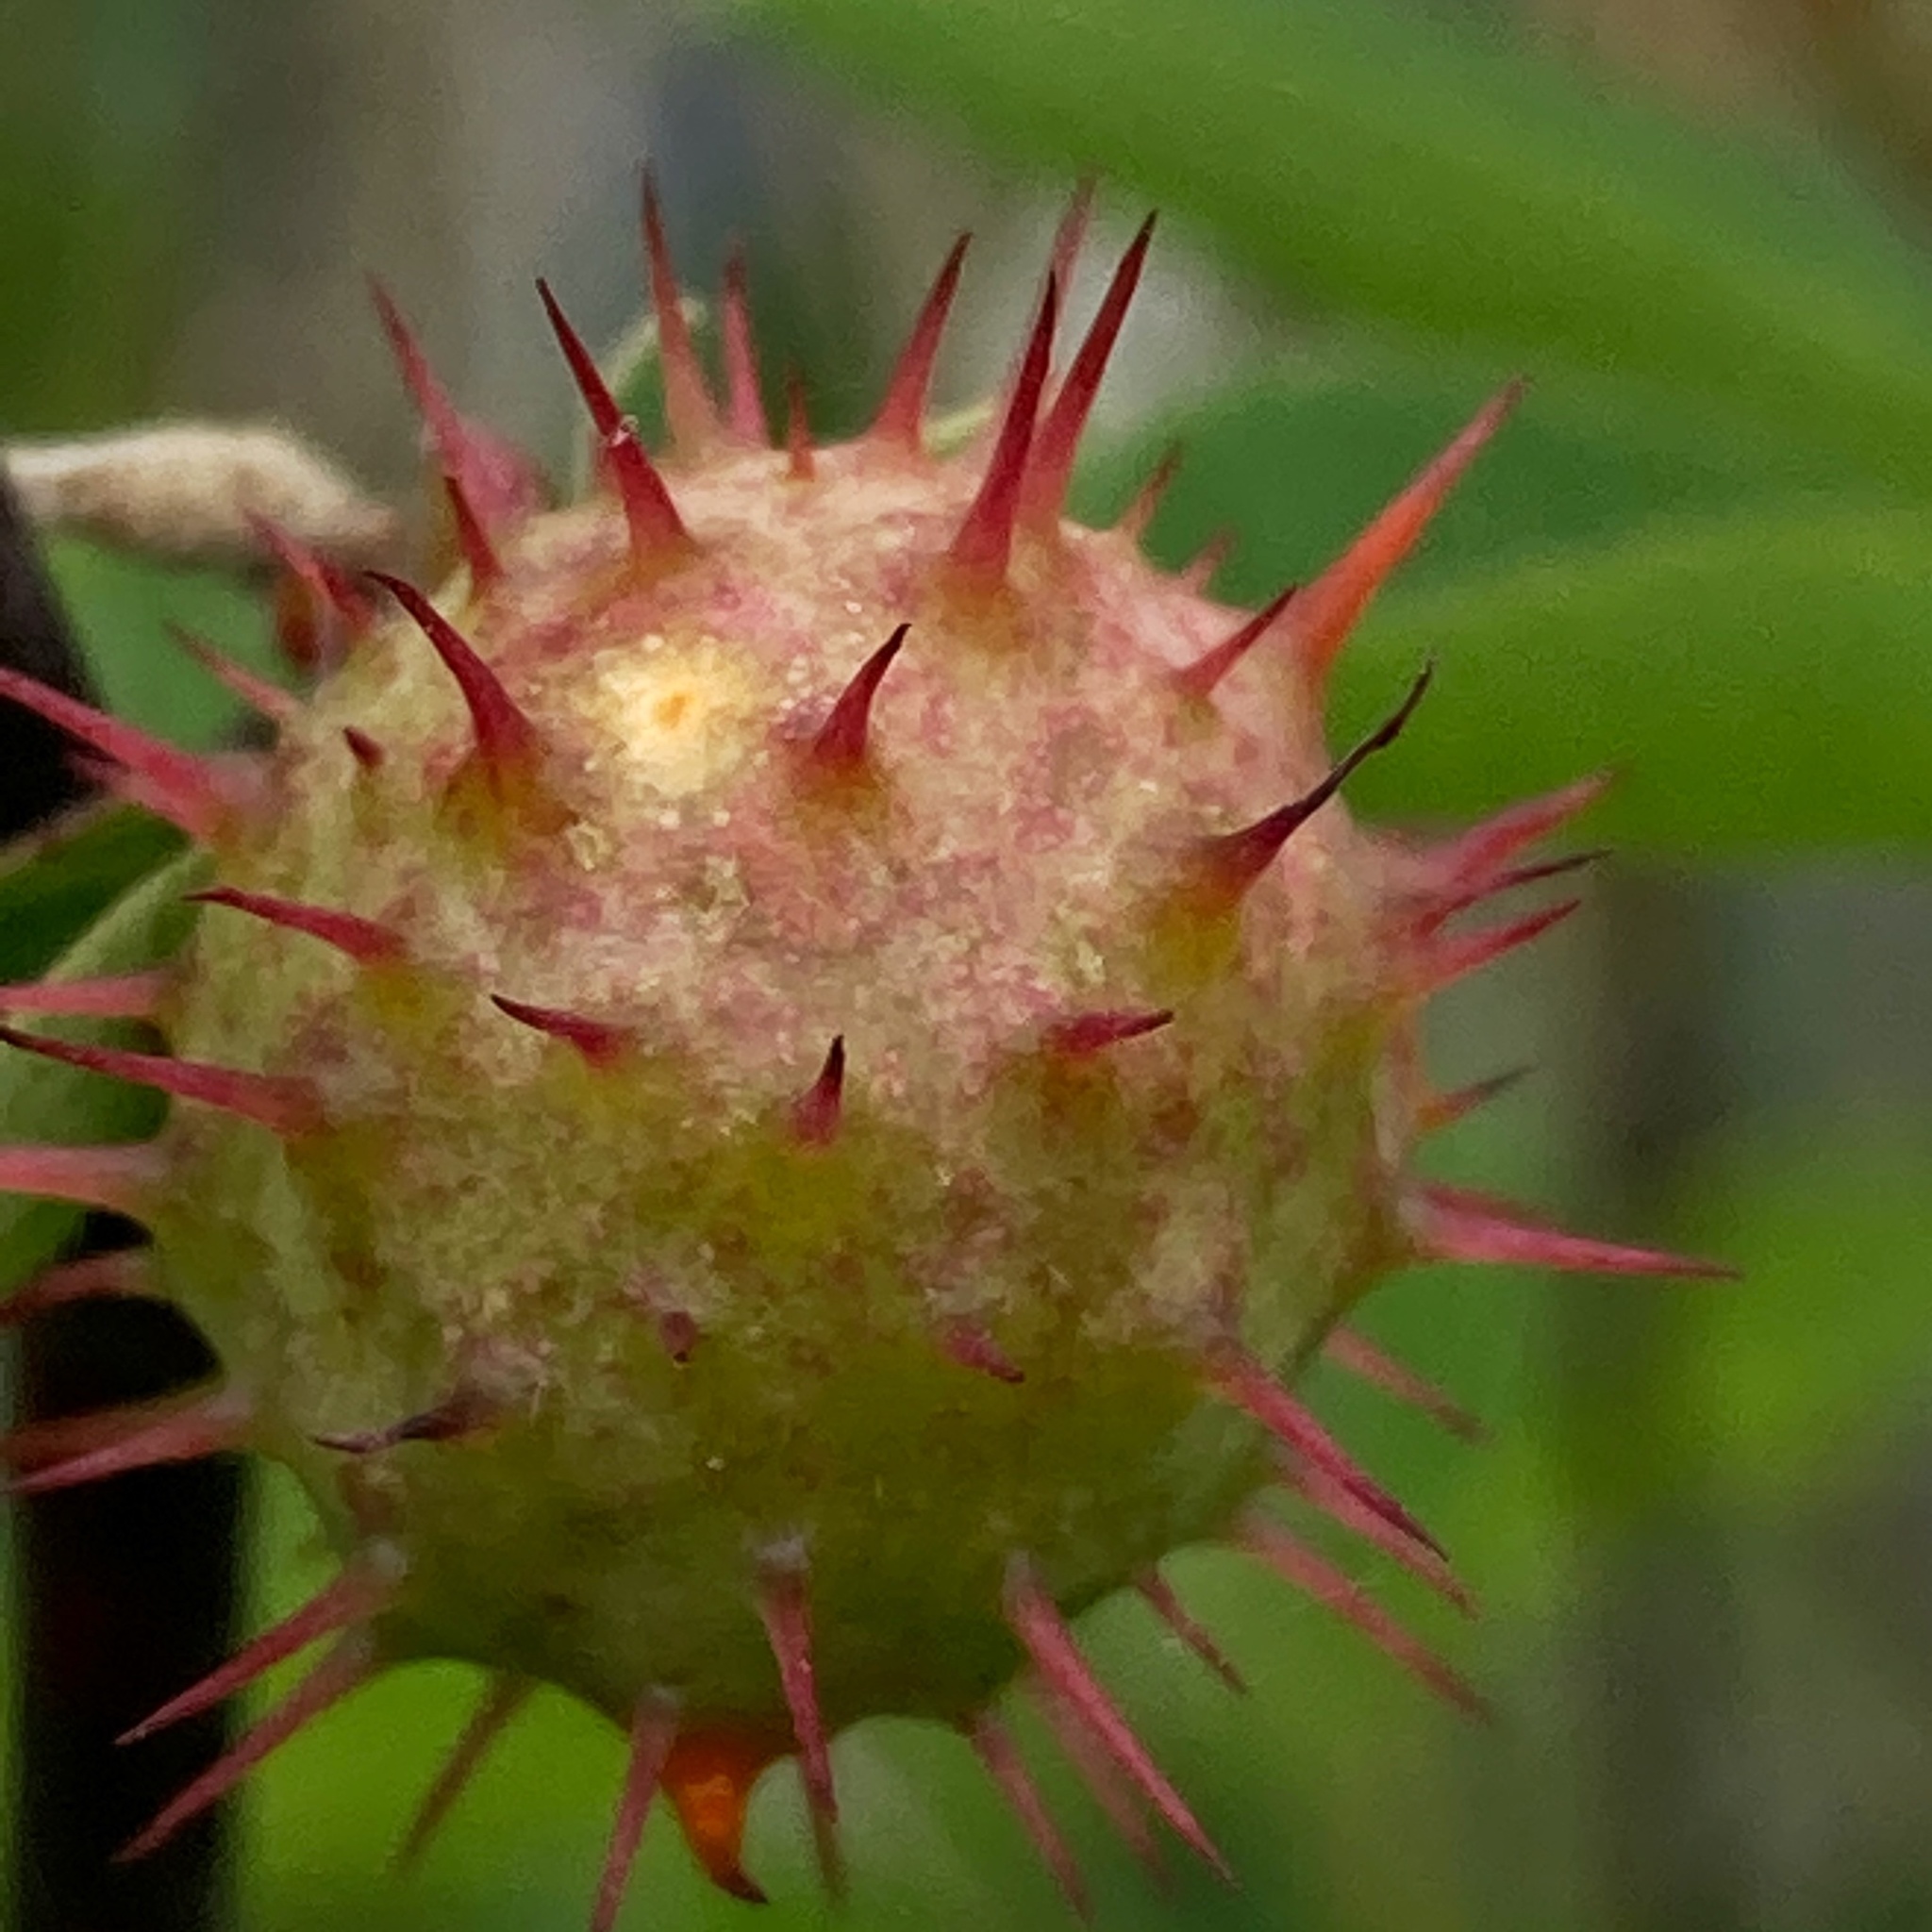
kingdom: Animalia
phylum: Arthropoda
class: Insecta
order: Hymenoptera
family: Cynipidae
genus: Diplolepis
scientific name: Diplolepis polita
